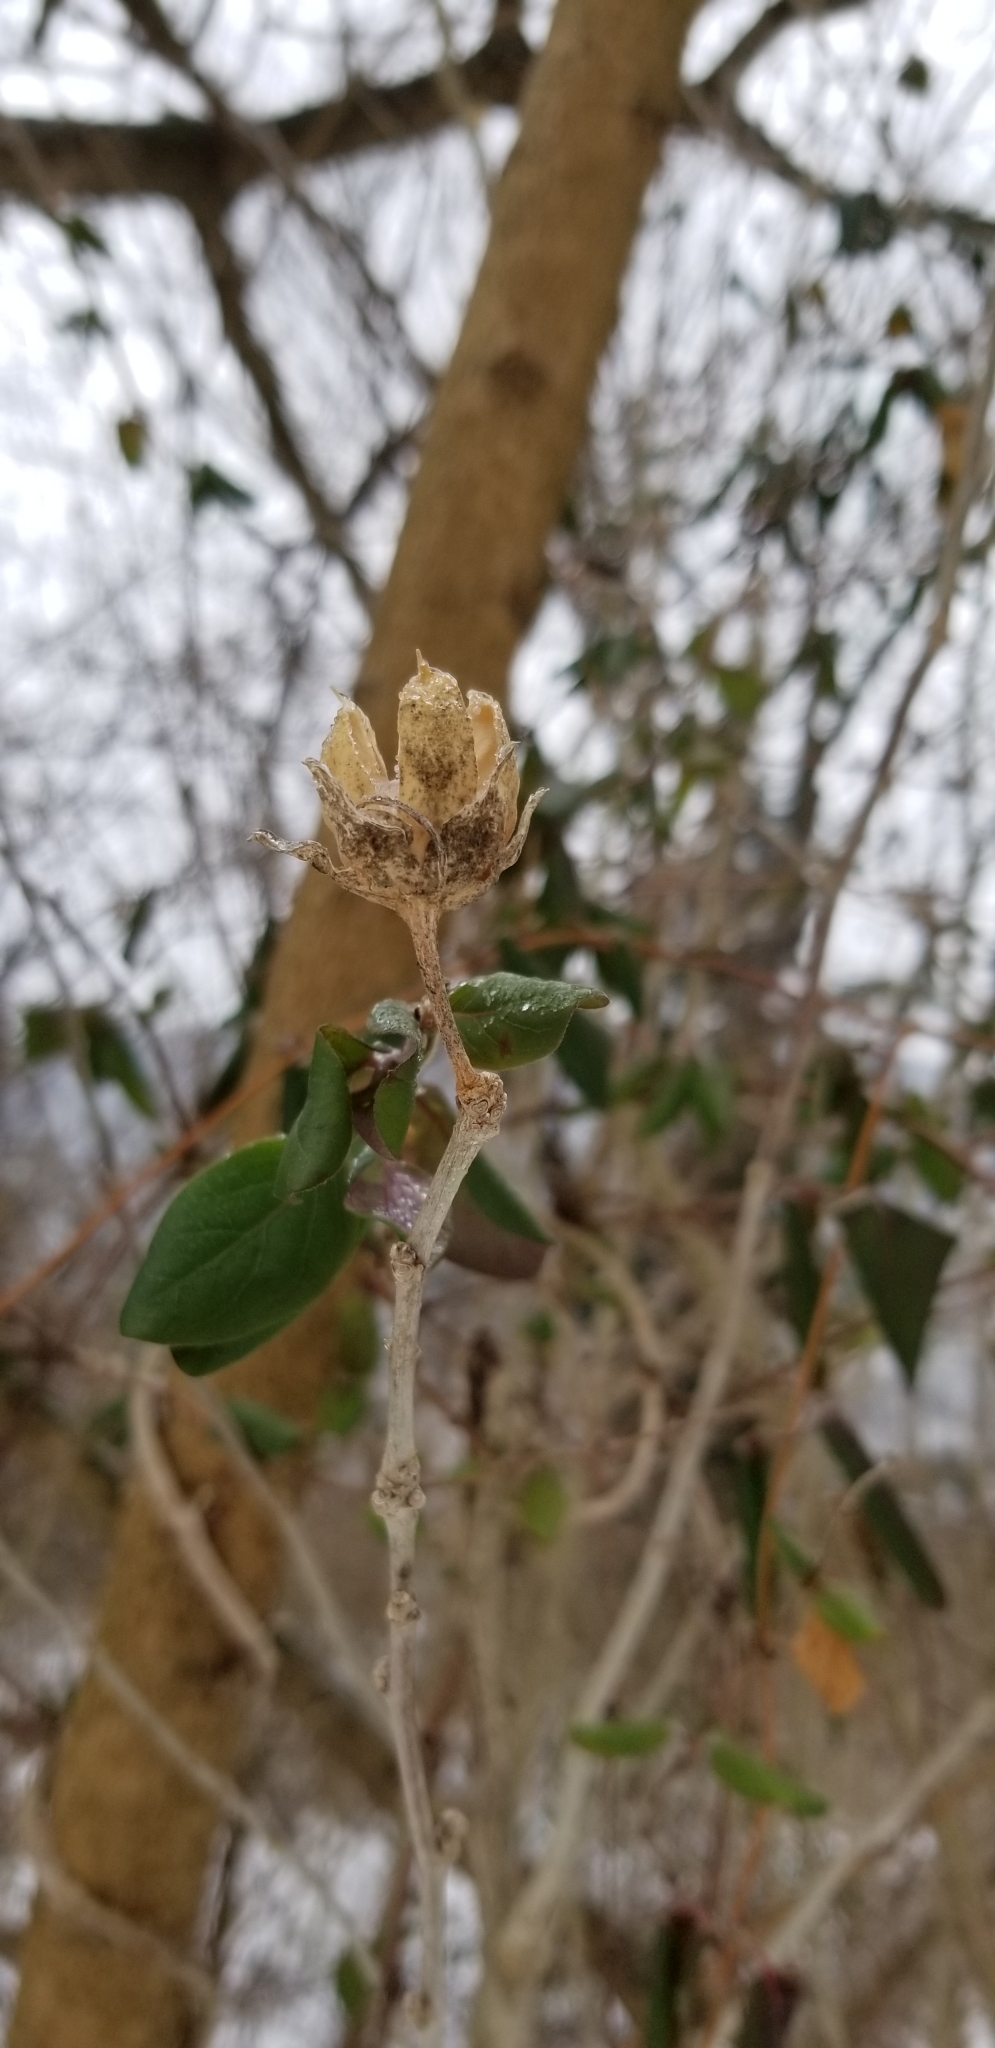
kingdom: Plantae
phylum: Tracheophyta
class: Magnoliopsida
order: Malvales
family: Malvaceae
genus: Hibiscus
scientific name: Hibiscus syriacus
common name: Syrian ketmia
